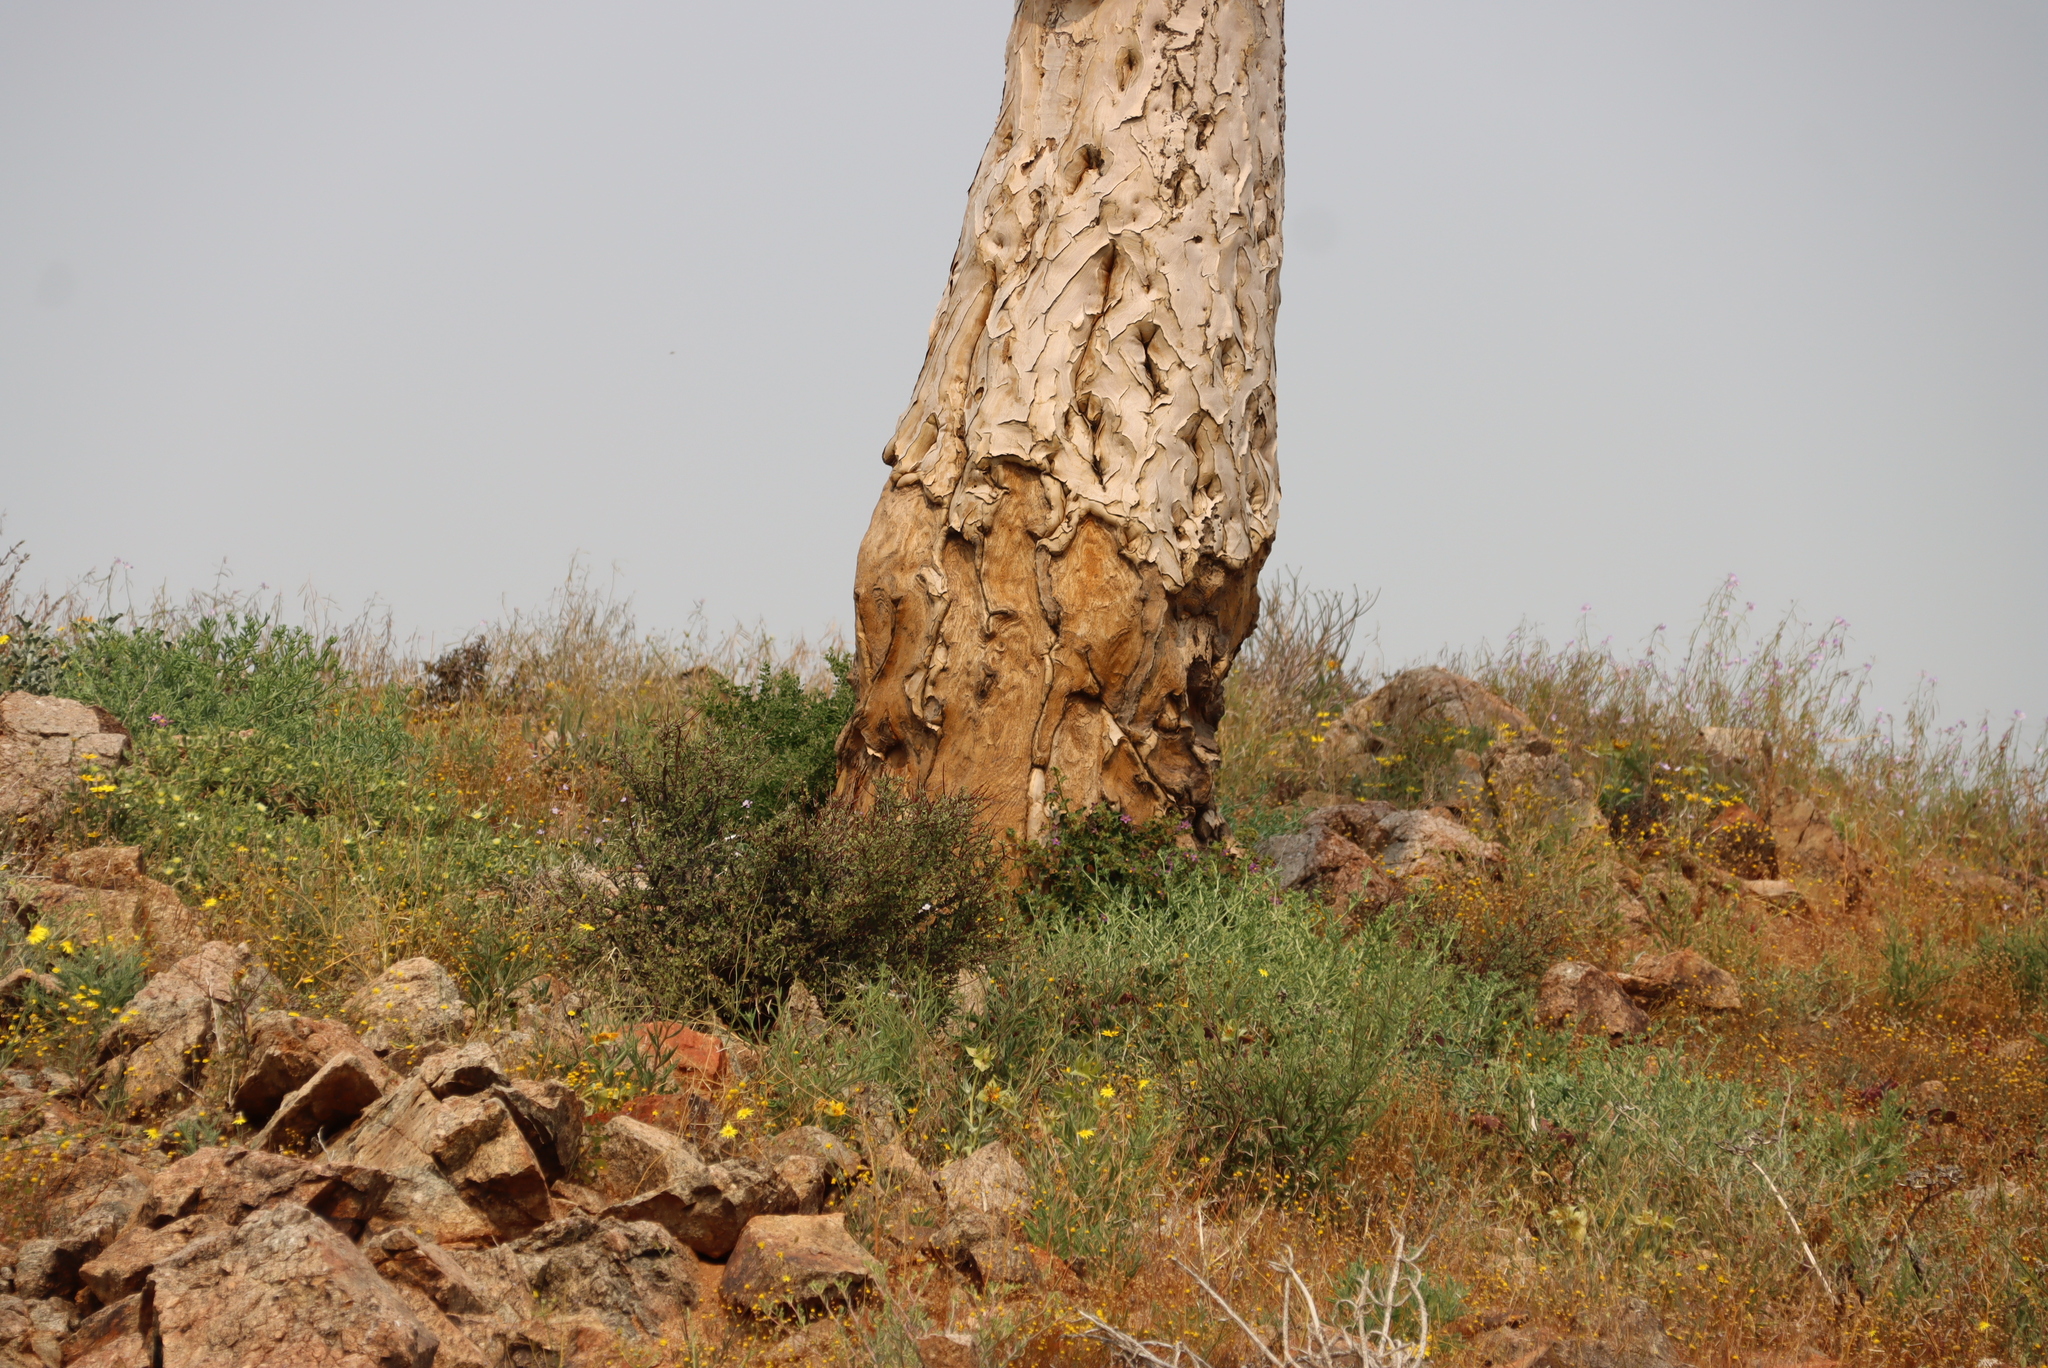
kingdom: Plantae
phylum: Tracheophyta
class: Liliopsida
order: Asparagales
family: Asphodelaceae
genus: Aloidendron
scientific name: Aloidendron pillansii
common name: Bastard quiver tree
